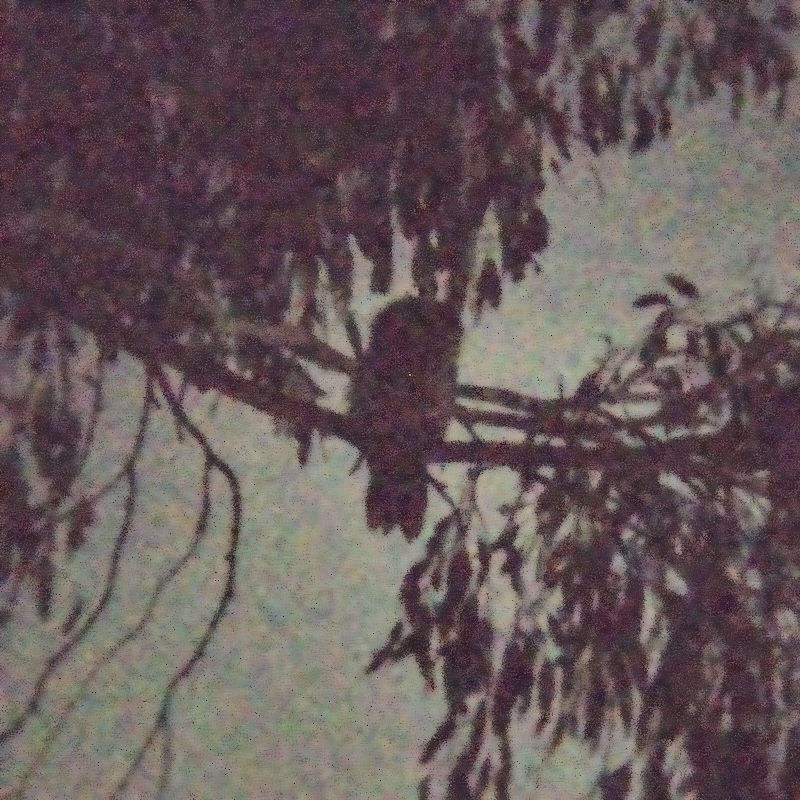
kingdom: Animalia
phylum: Chordata
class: Aves
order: Caprimulgiformes
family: Podargidae
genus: Podargus
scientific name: Podargus strigoides
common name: Tawny frogmouth
